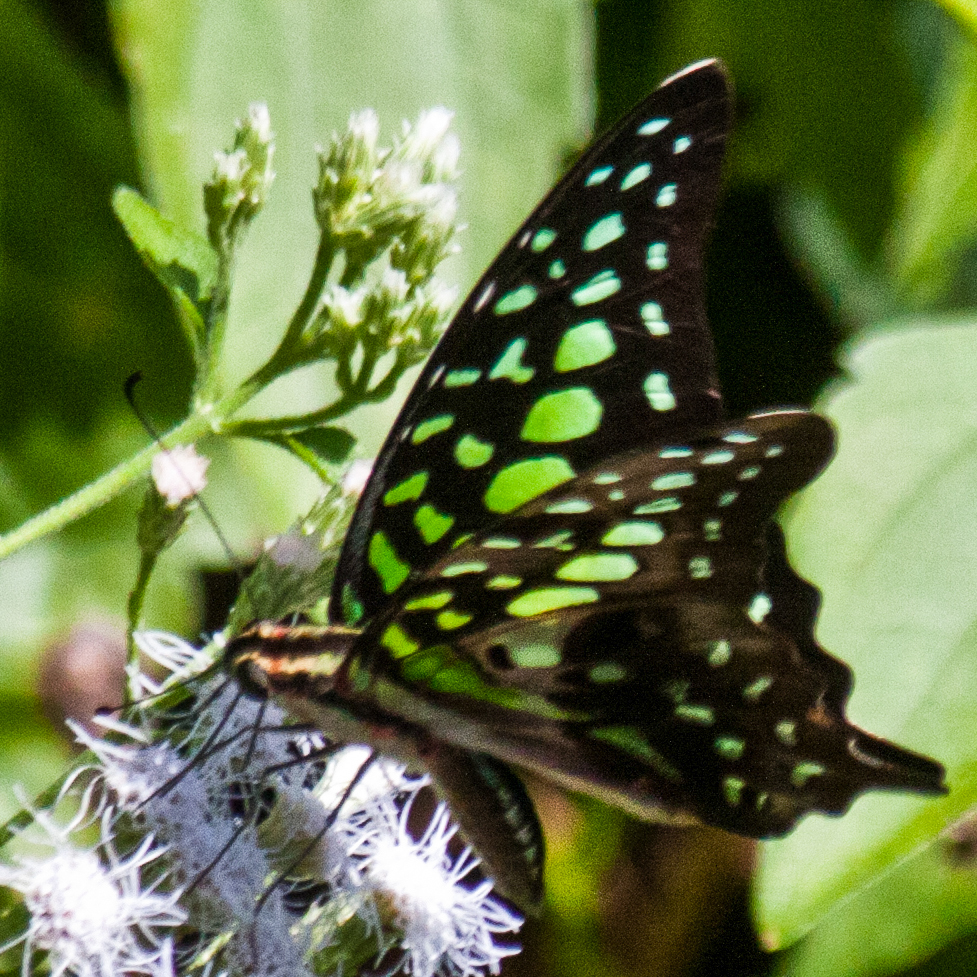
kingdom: Animalia
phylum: Arthropoda
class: Insecta
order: Lepidoptera
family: Papilionidae
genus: Graphium
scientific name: Graphium agamemnon
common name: Tailed jay
